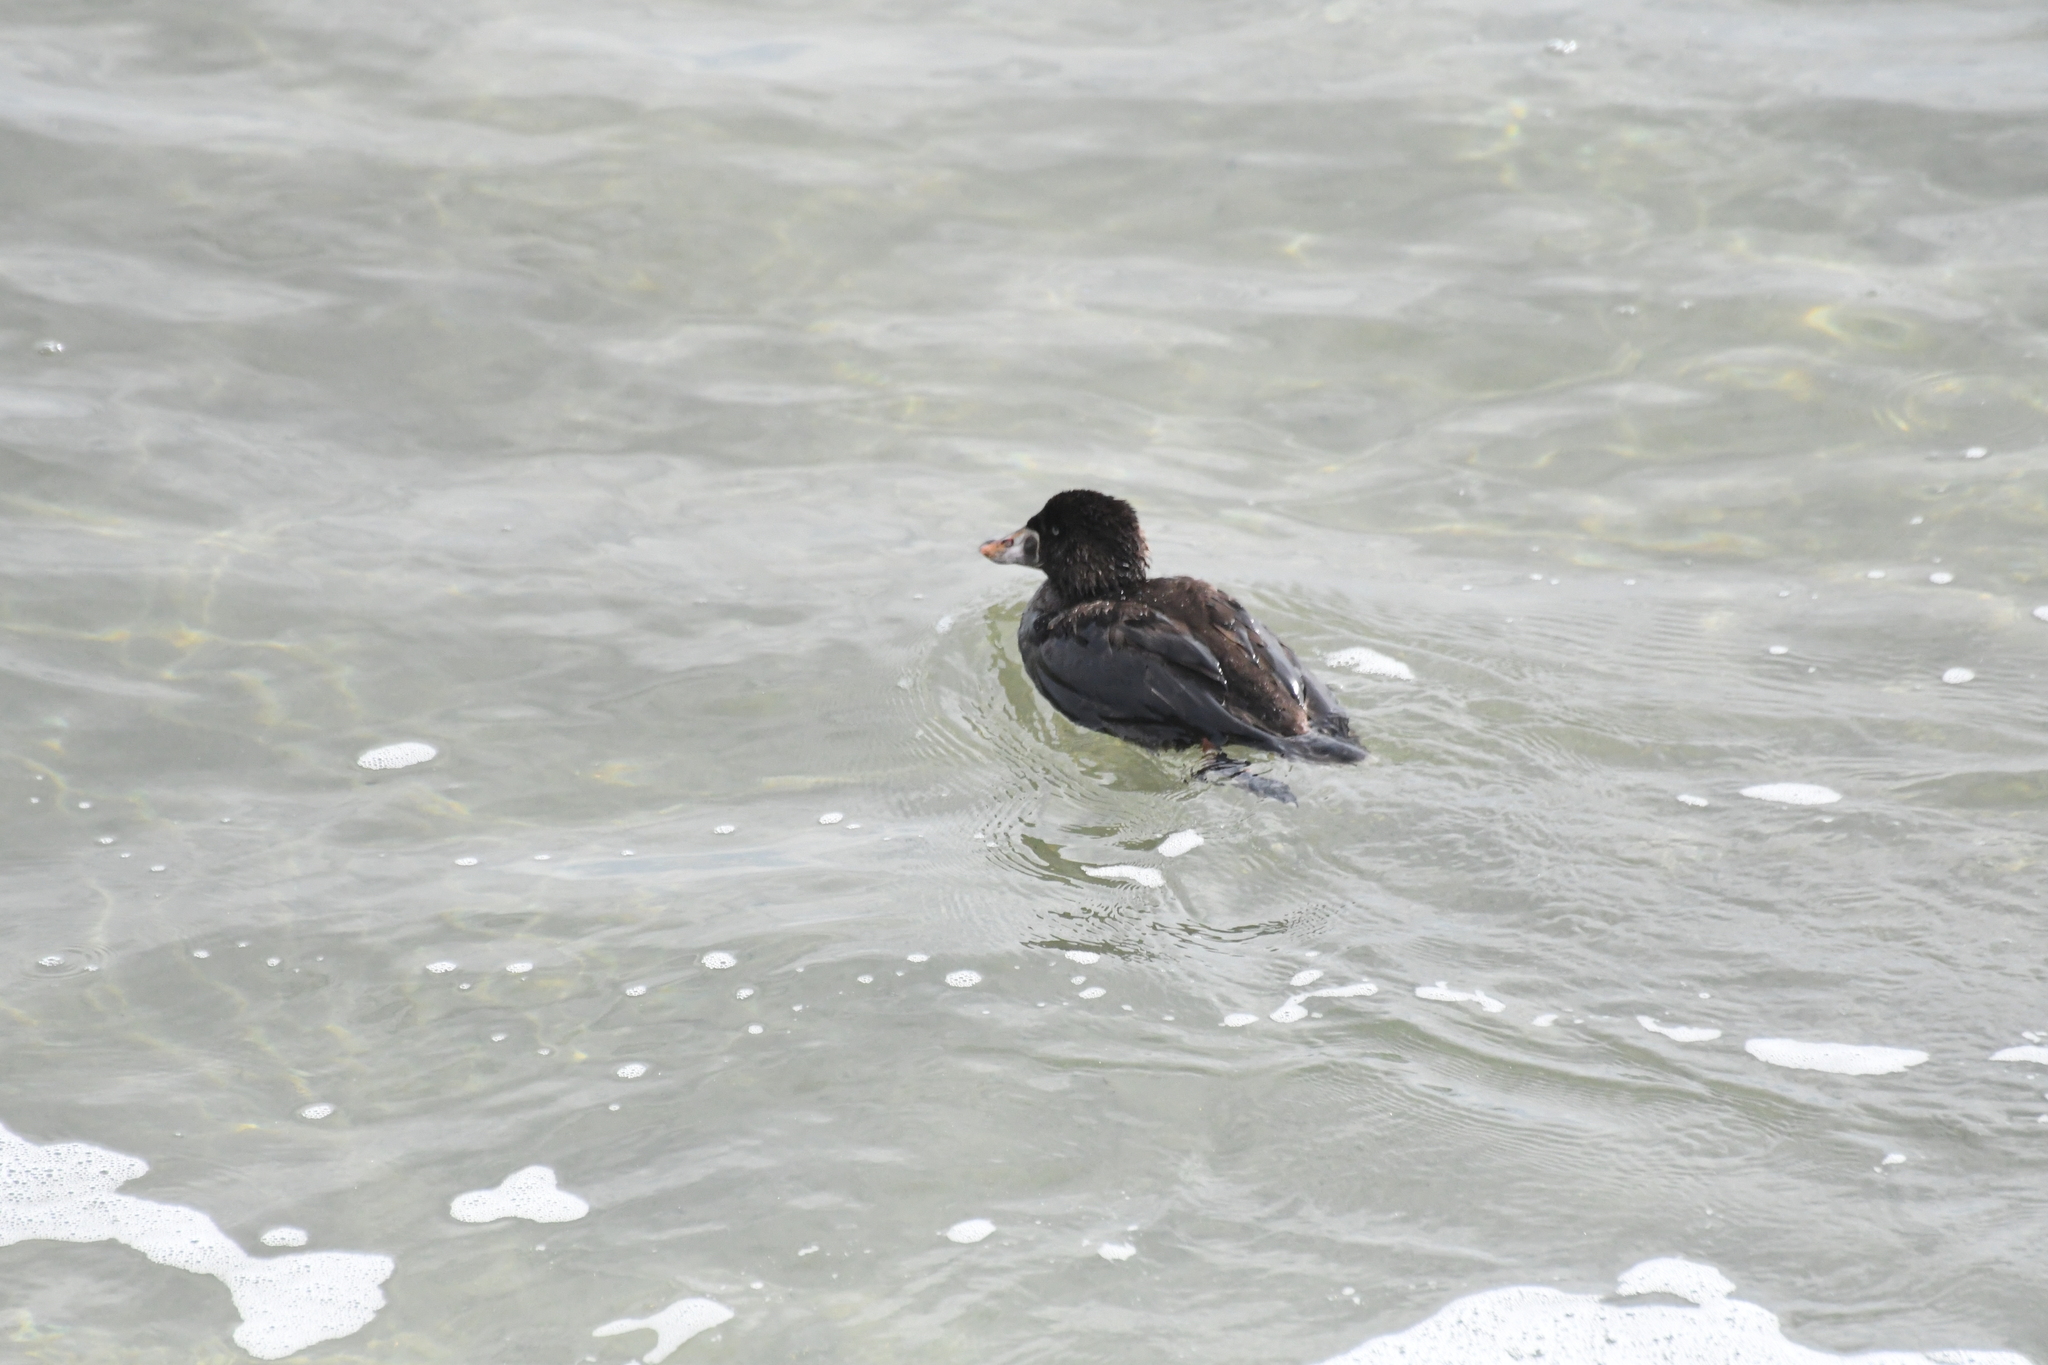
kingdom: Animalia
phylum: Chordata
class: Aves
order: Anseriformes
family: Anatidae
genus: Melanitta
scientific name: Melanitta perspicillata
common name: Surf scoter
